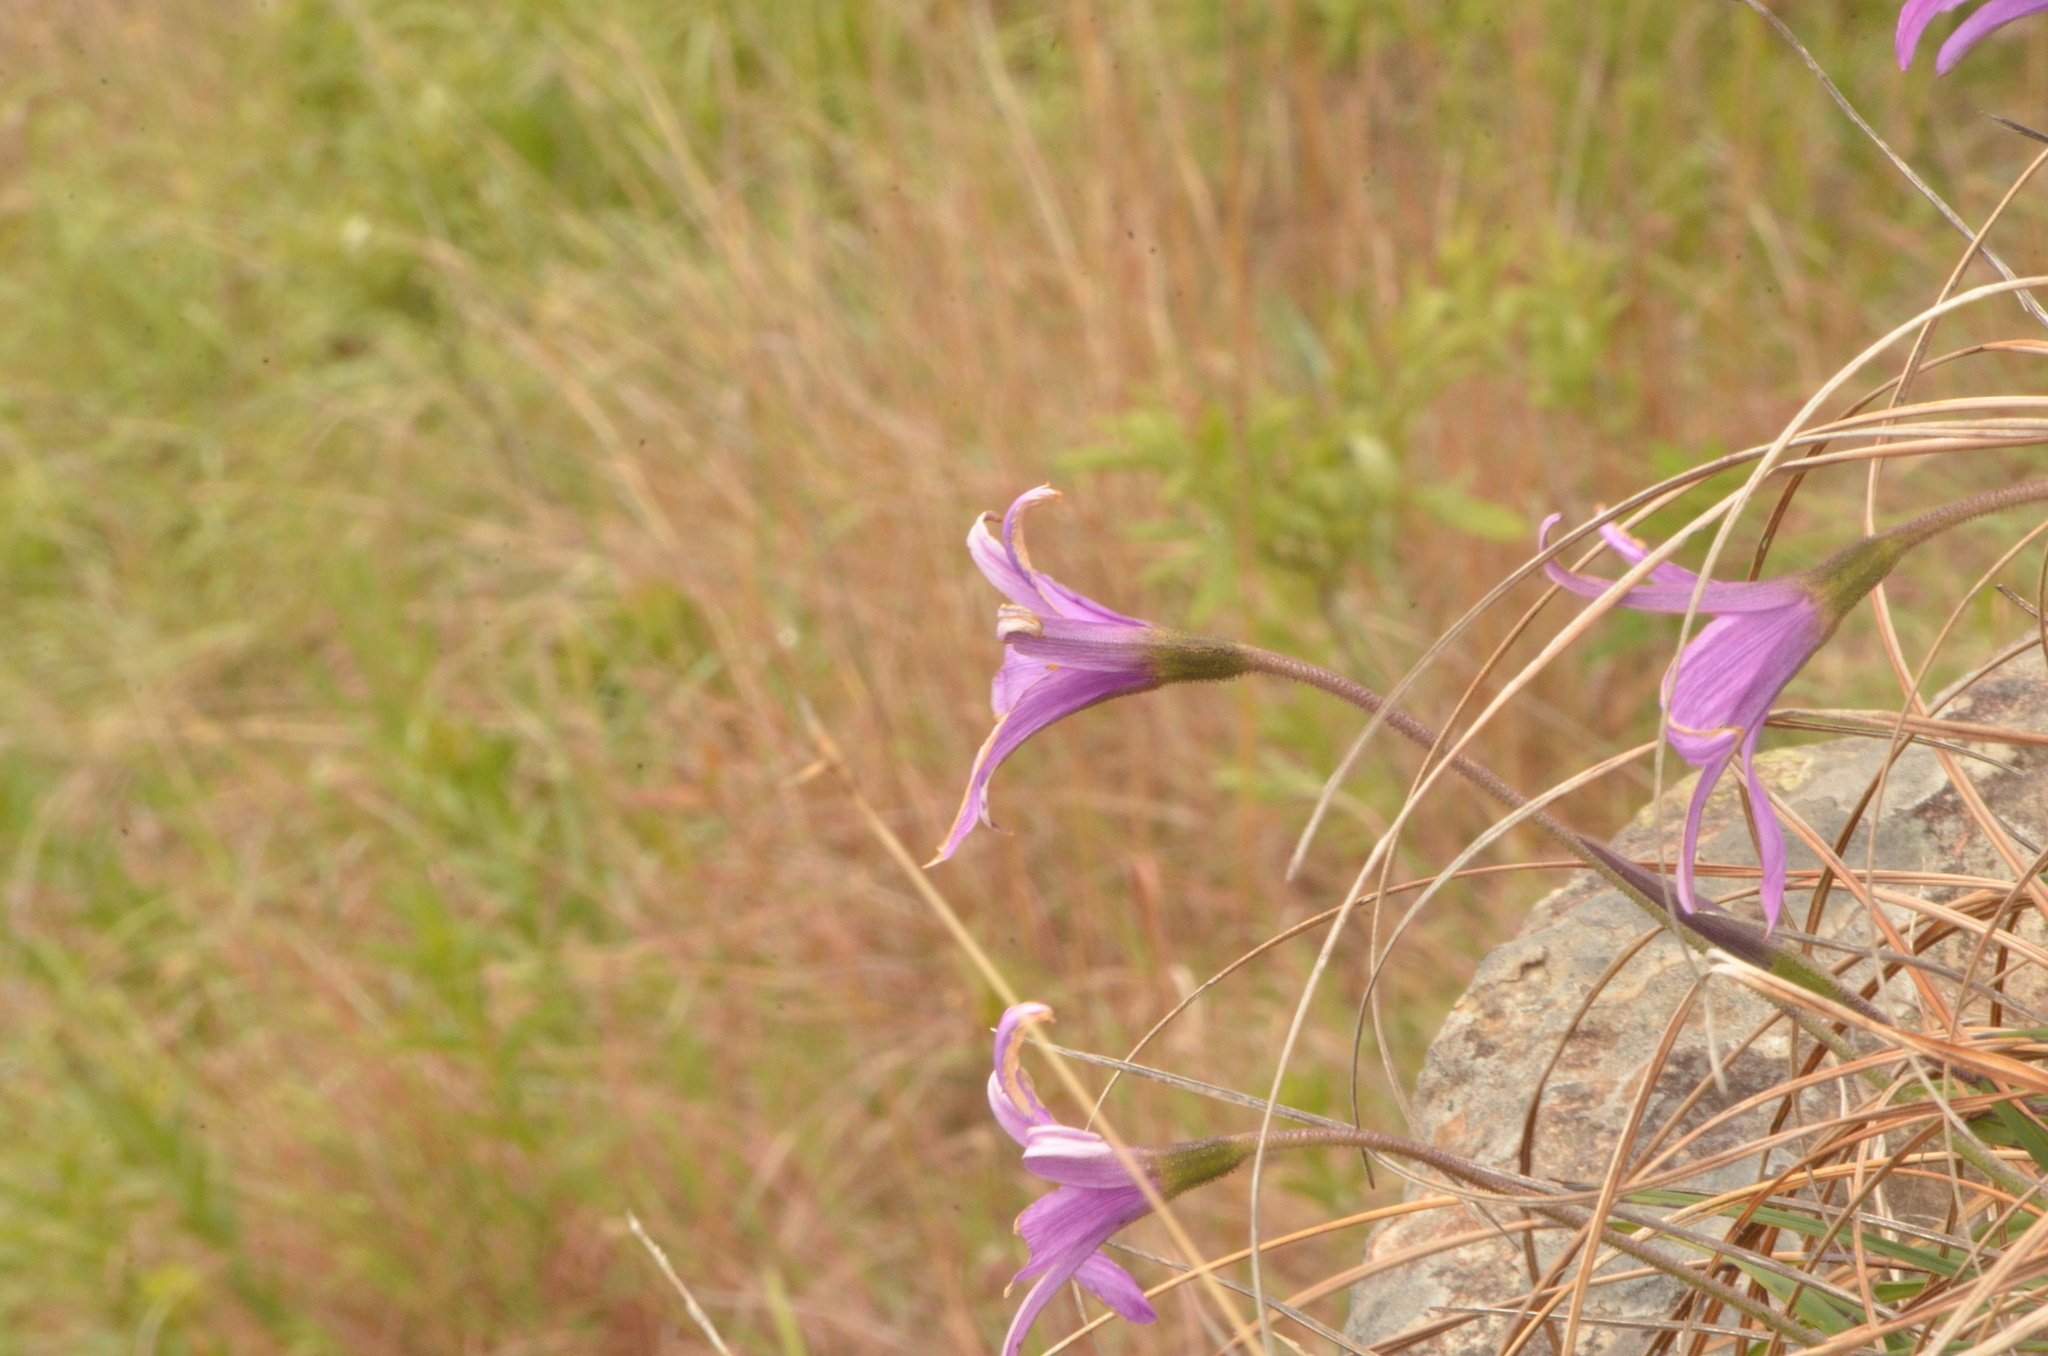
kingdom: Plantae
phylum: Tracheophyta
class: Liliopsida
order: Pandanales
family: Velloziaceae
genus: Xerophyta
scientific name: Xerophyta viscosa
